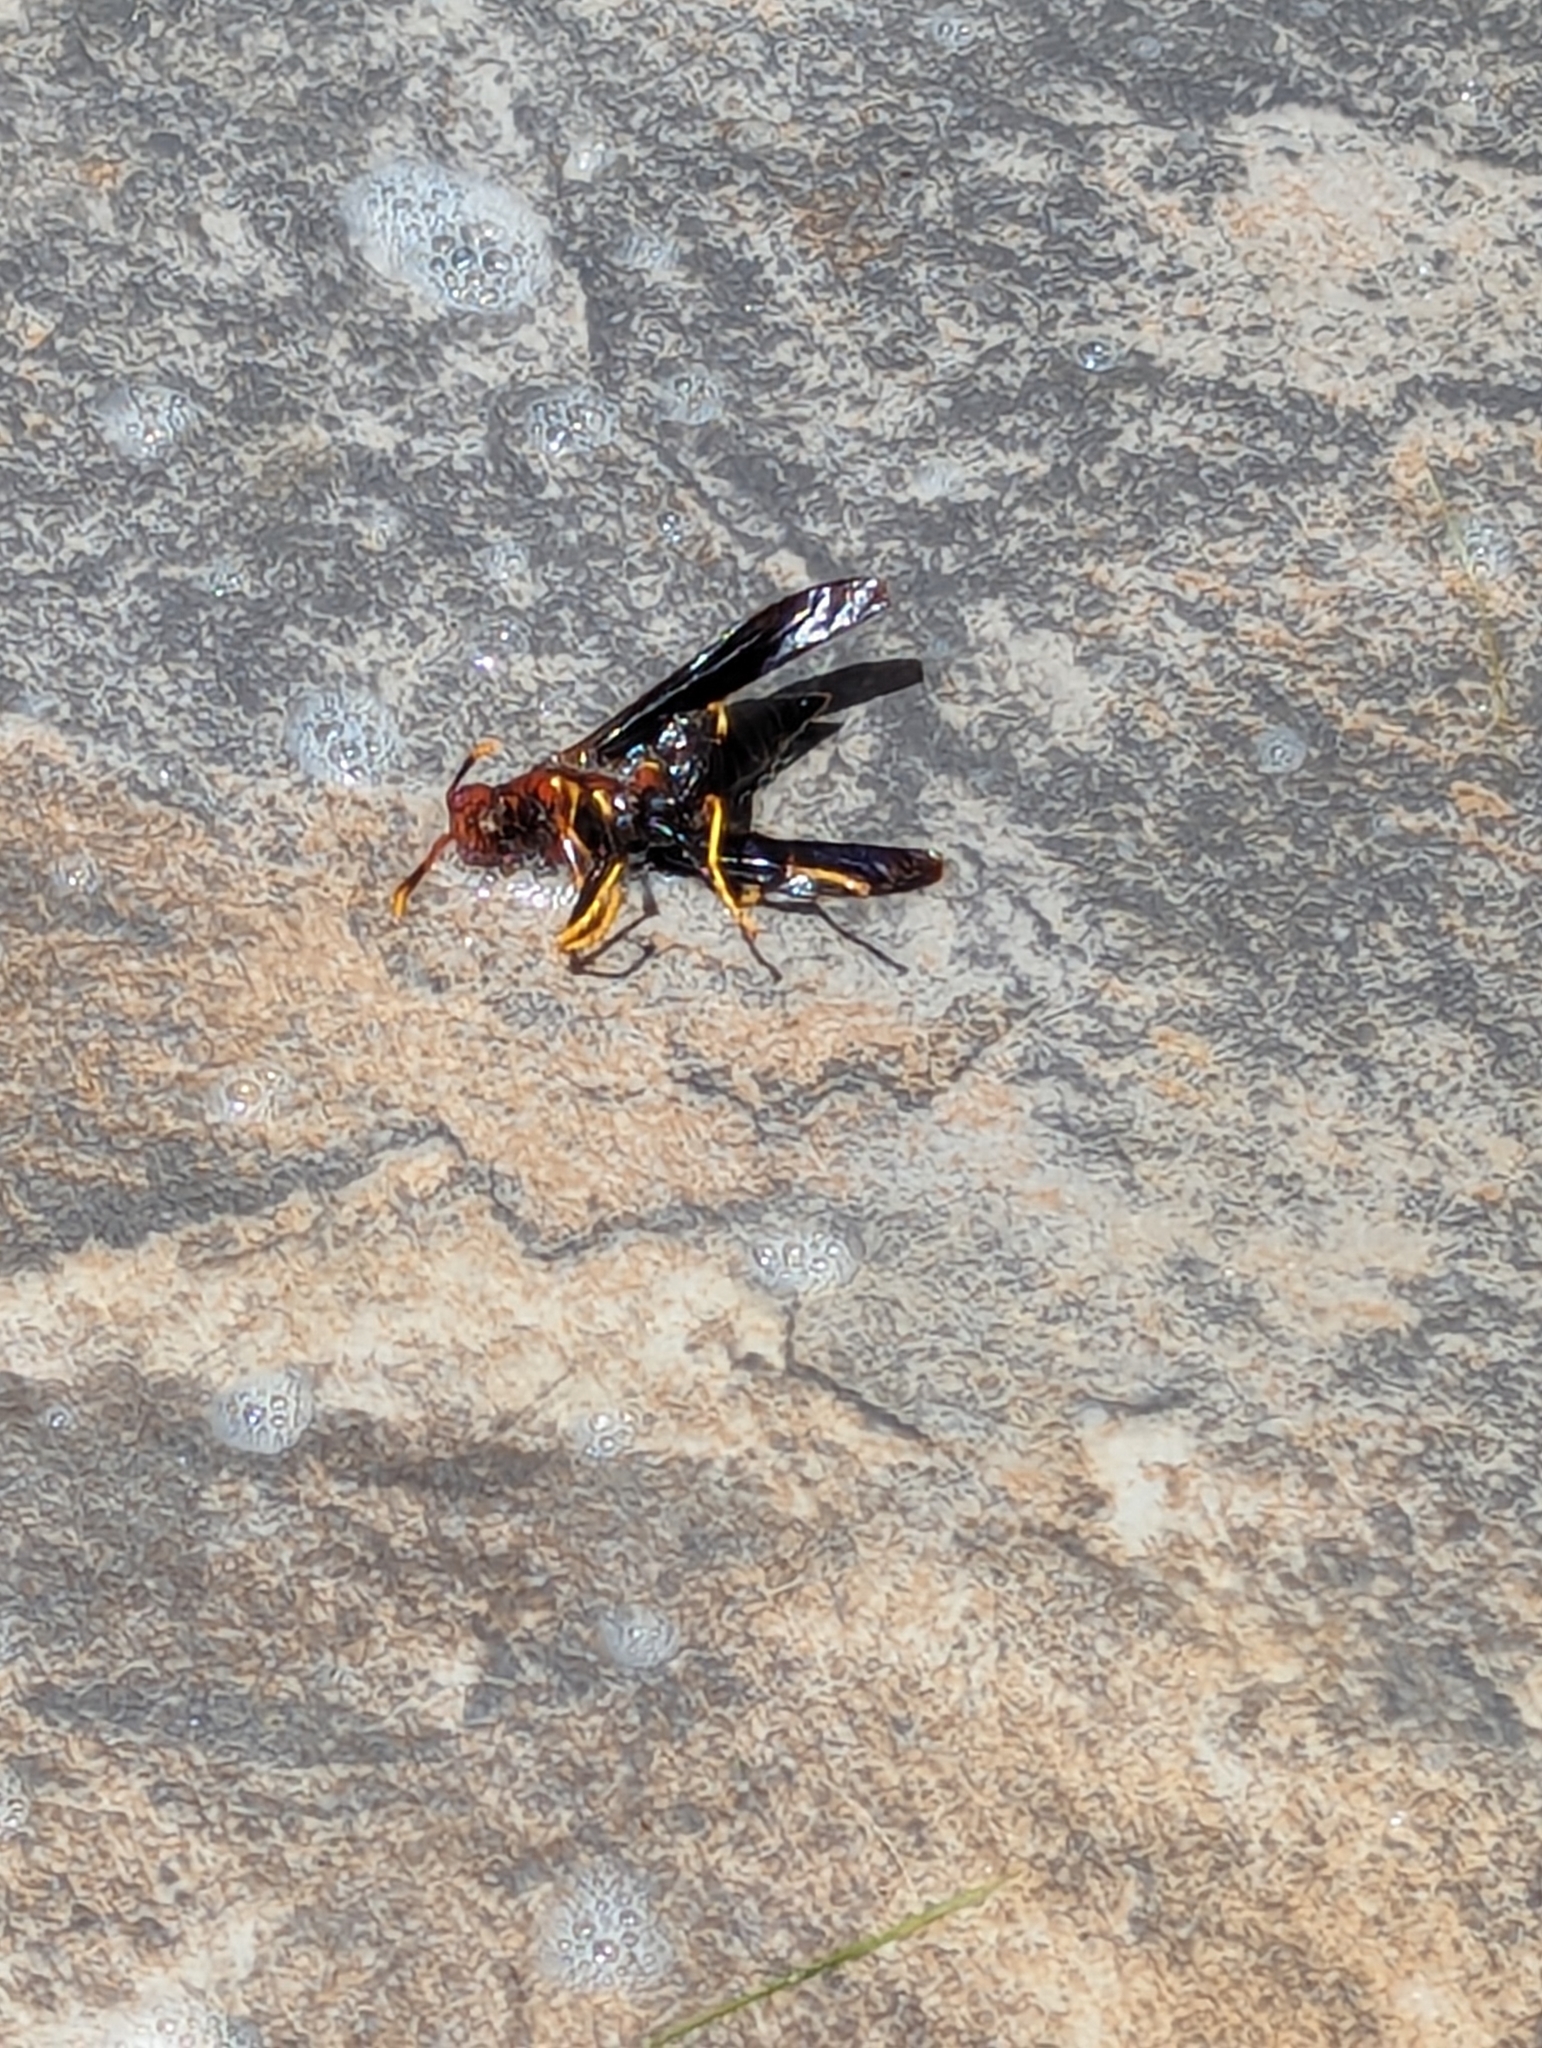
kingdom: Animalia
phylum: Arthropoda
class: Insecta
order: Hymenoptera
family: Eumenidae
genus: Polistes
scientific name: Polistes annularis
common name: Ringed paper wasp
